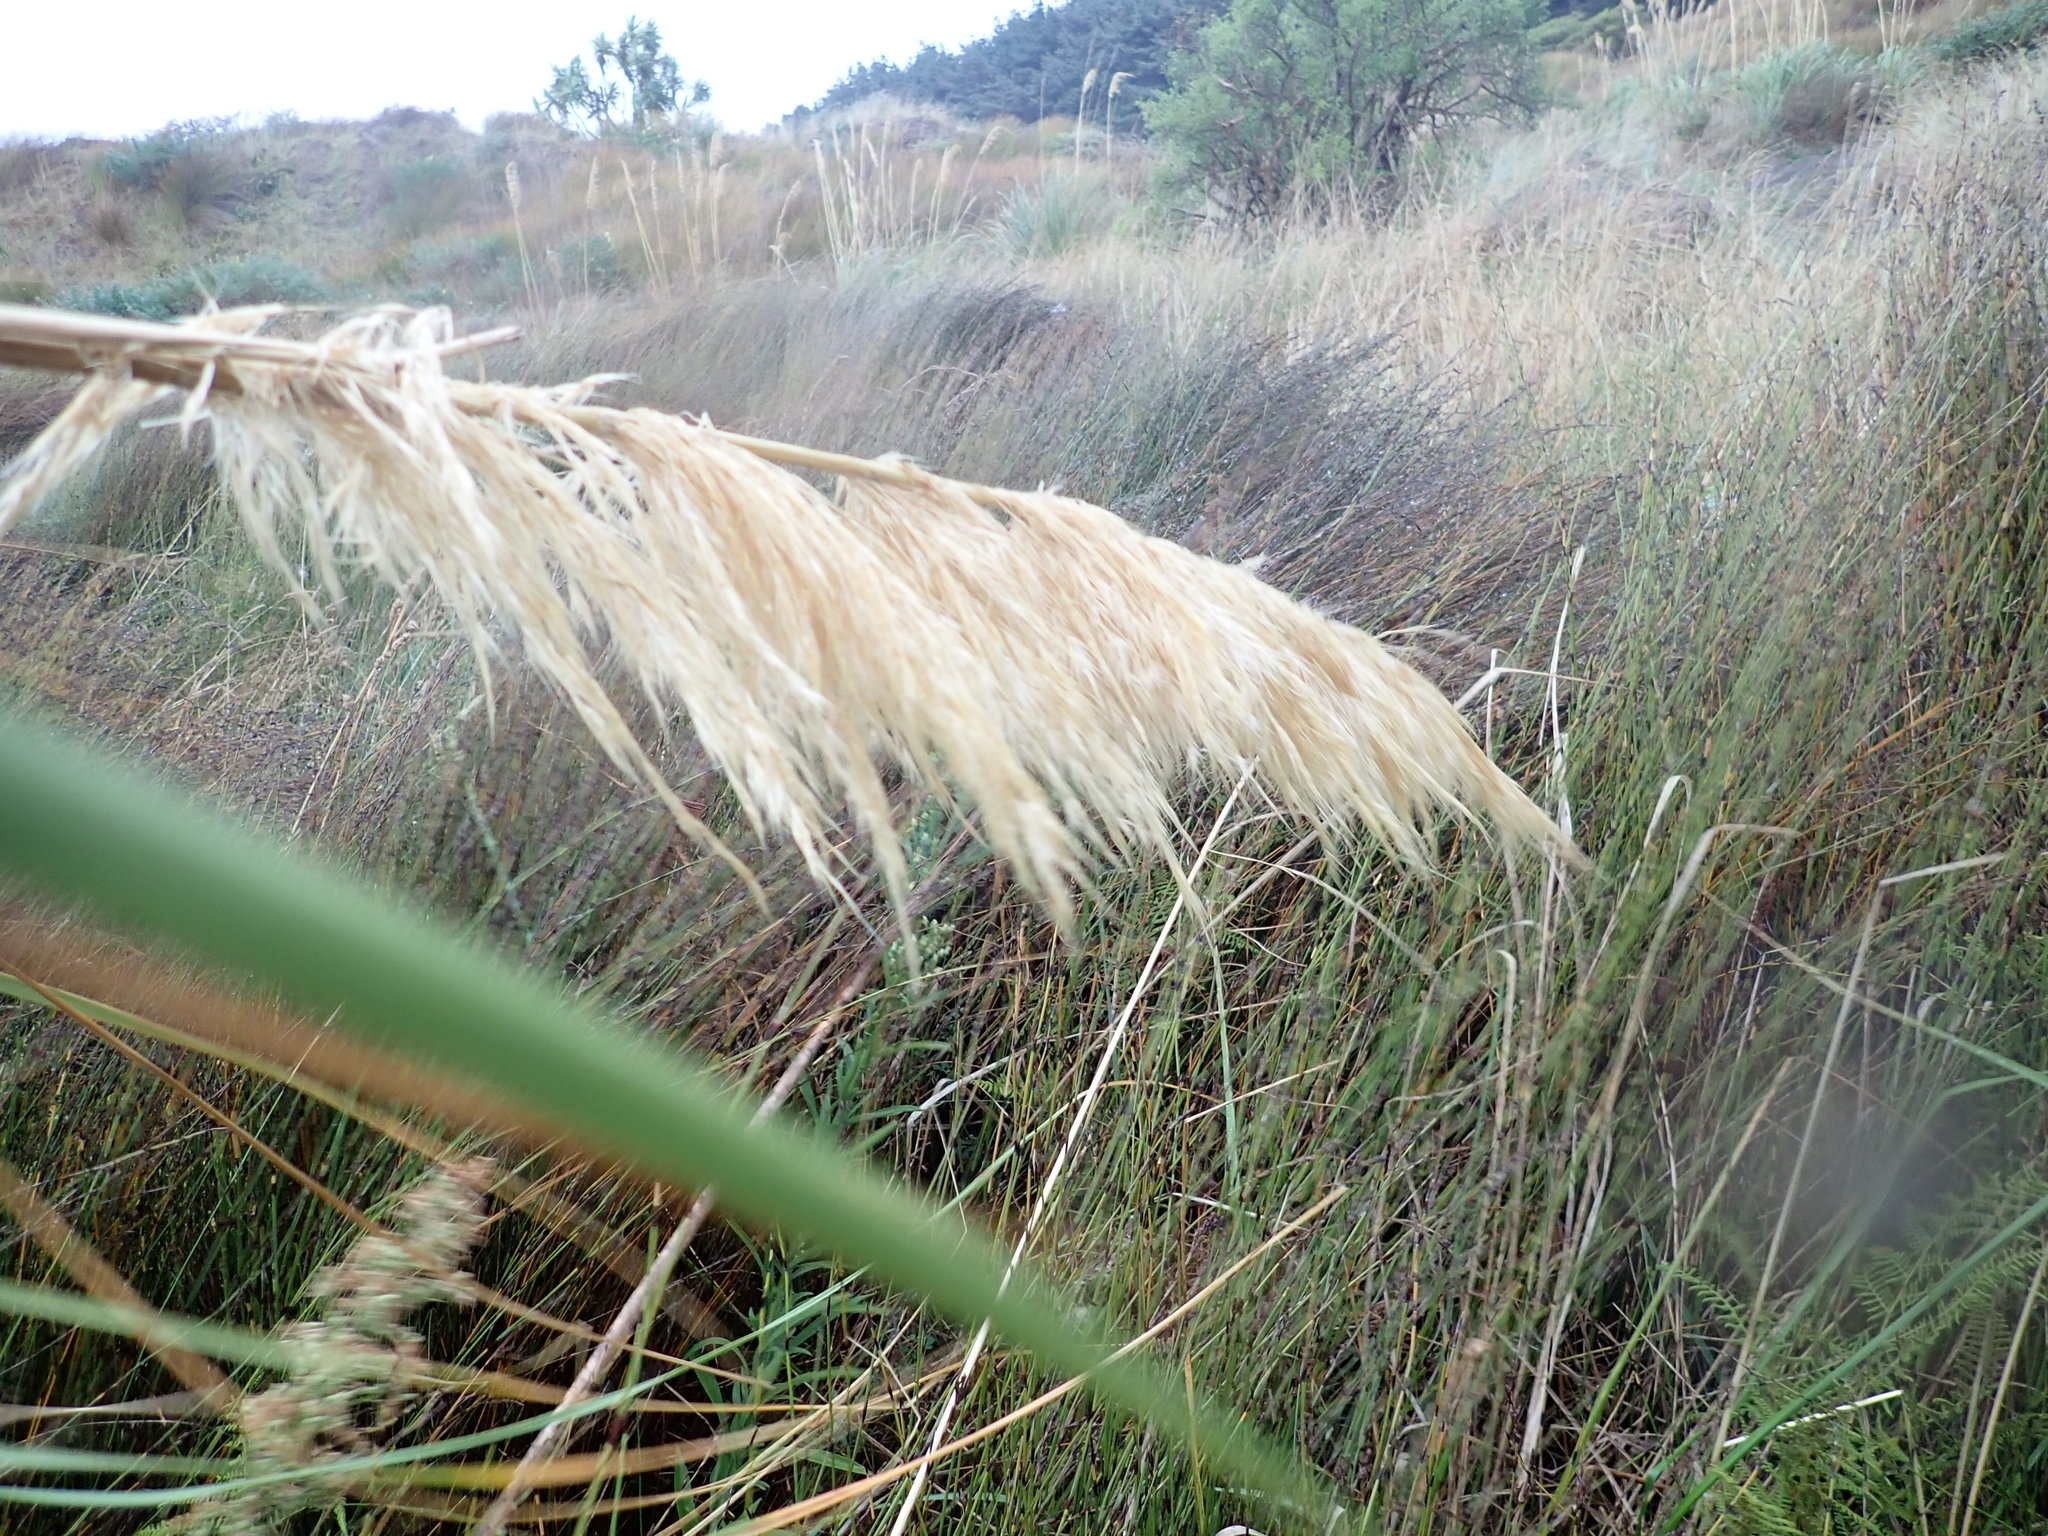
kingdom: Plantae
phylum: Tracheophyta
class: Liliopsida
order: Poales
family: Poaceae
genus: Austroderia
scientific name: Austroderia toetoe
